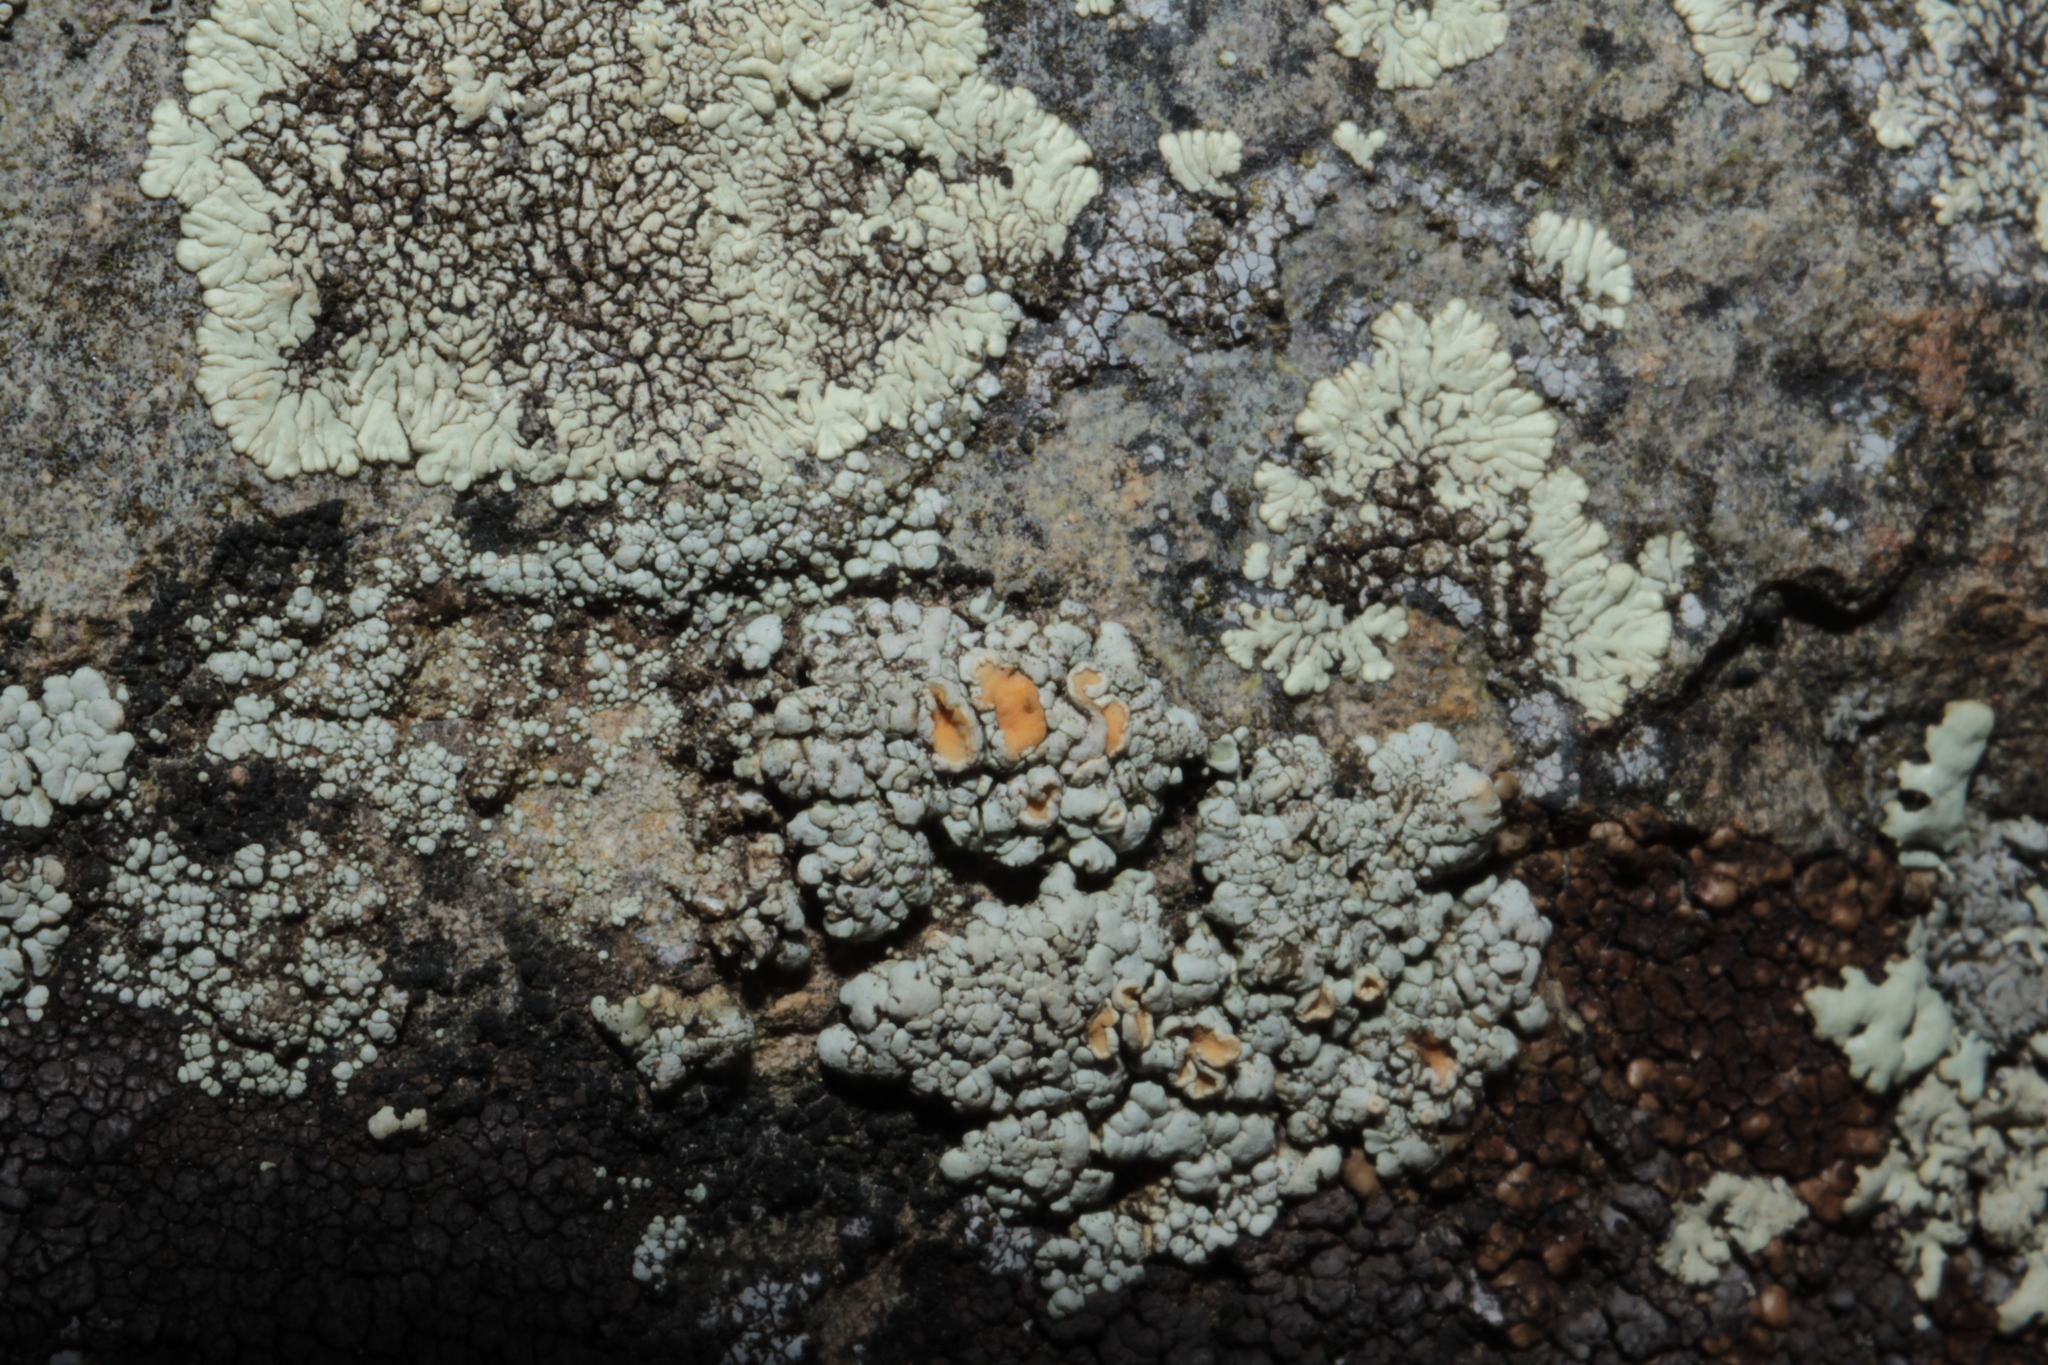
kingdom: Fungi
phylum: Ascomycota
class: Lecanoromycetes
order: Lecanorales
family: Lecanoraceae
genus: Sedelnikovaea
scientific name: Sedelnikovaea subdiscrepans
